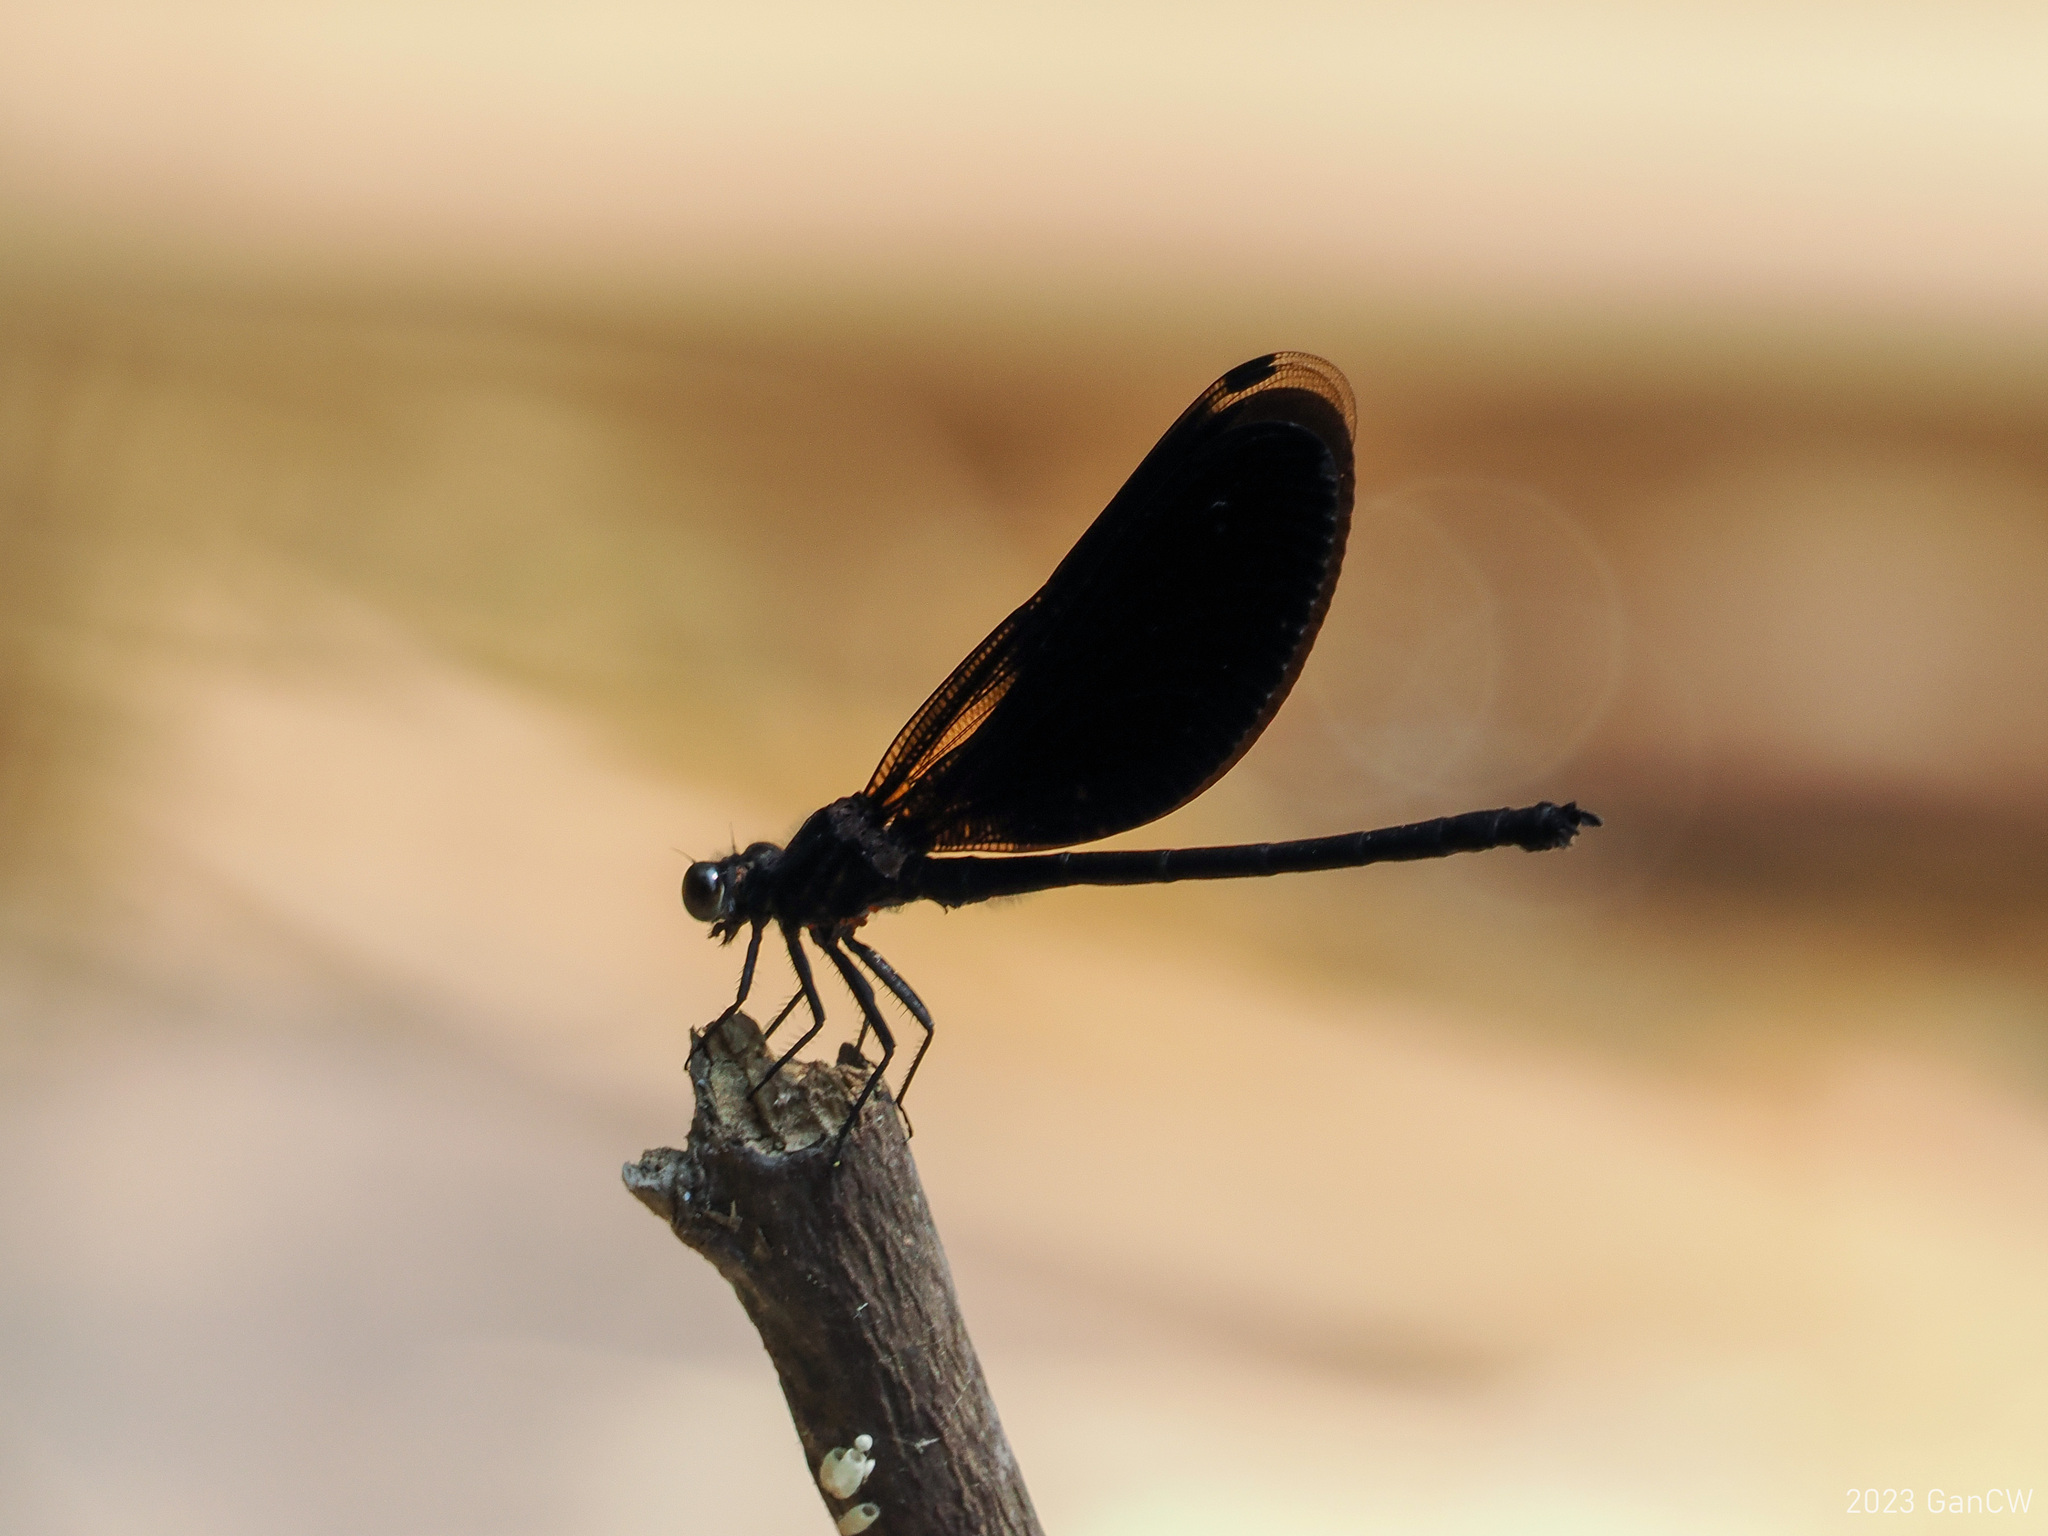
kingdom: Animalia
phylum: Arthropoda
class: Insecta
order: Odonata
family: Euphaeidae
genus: Euphaea
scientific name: Euphaea masoni
